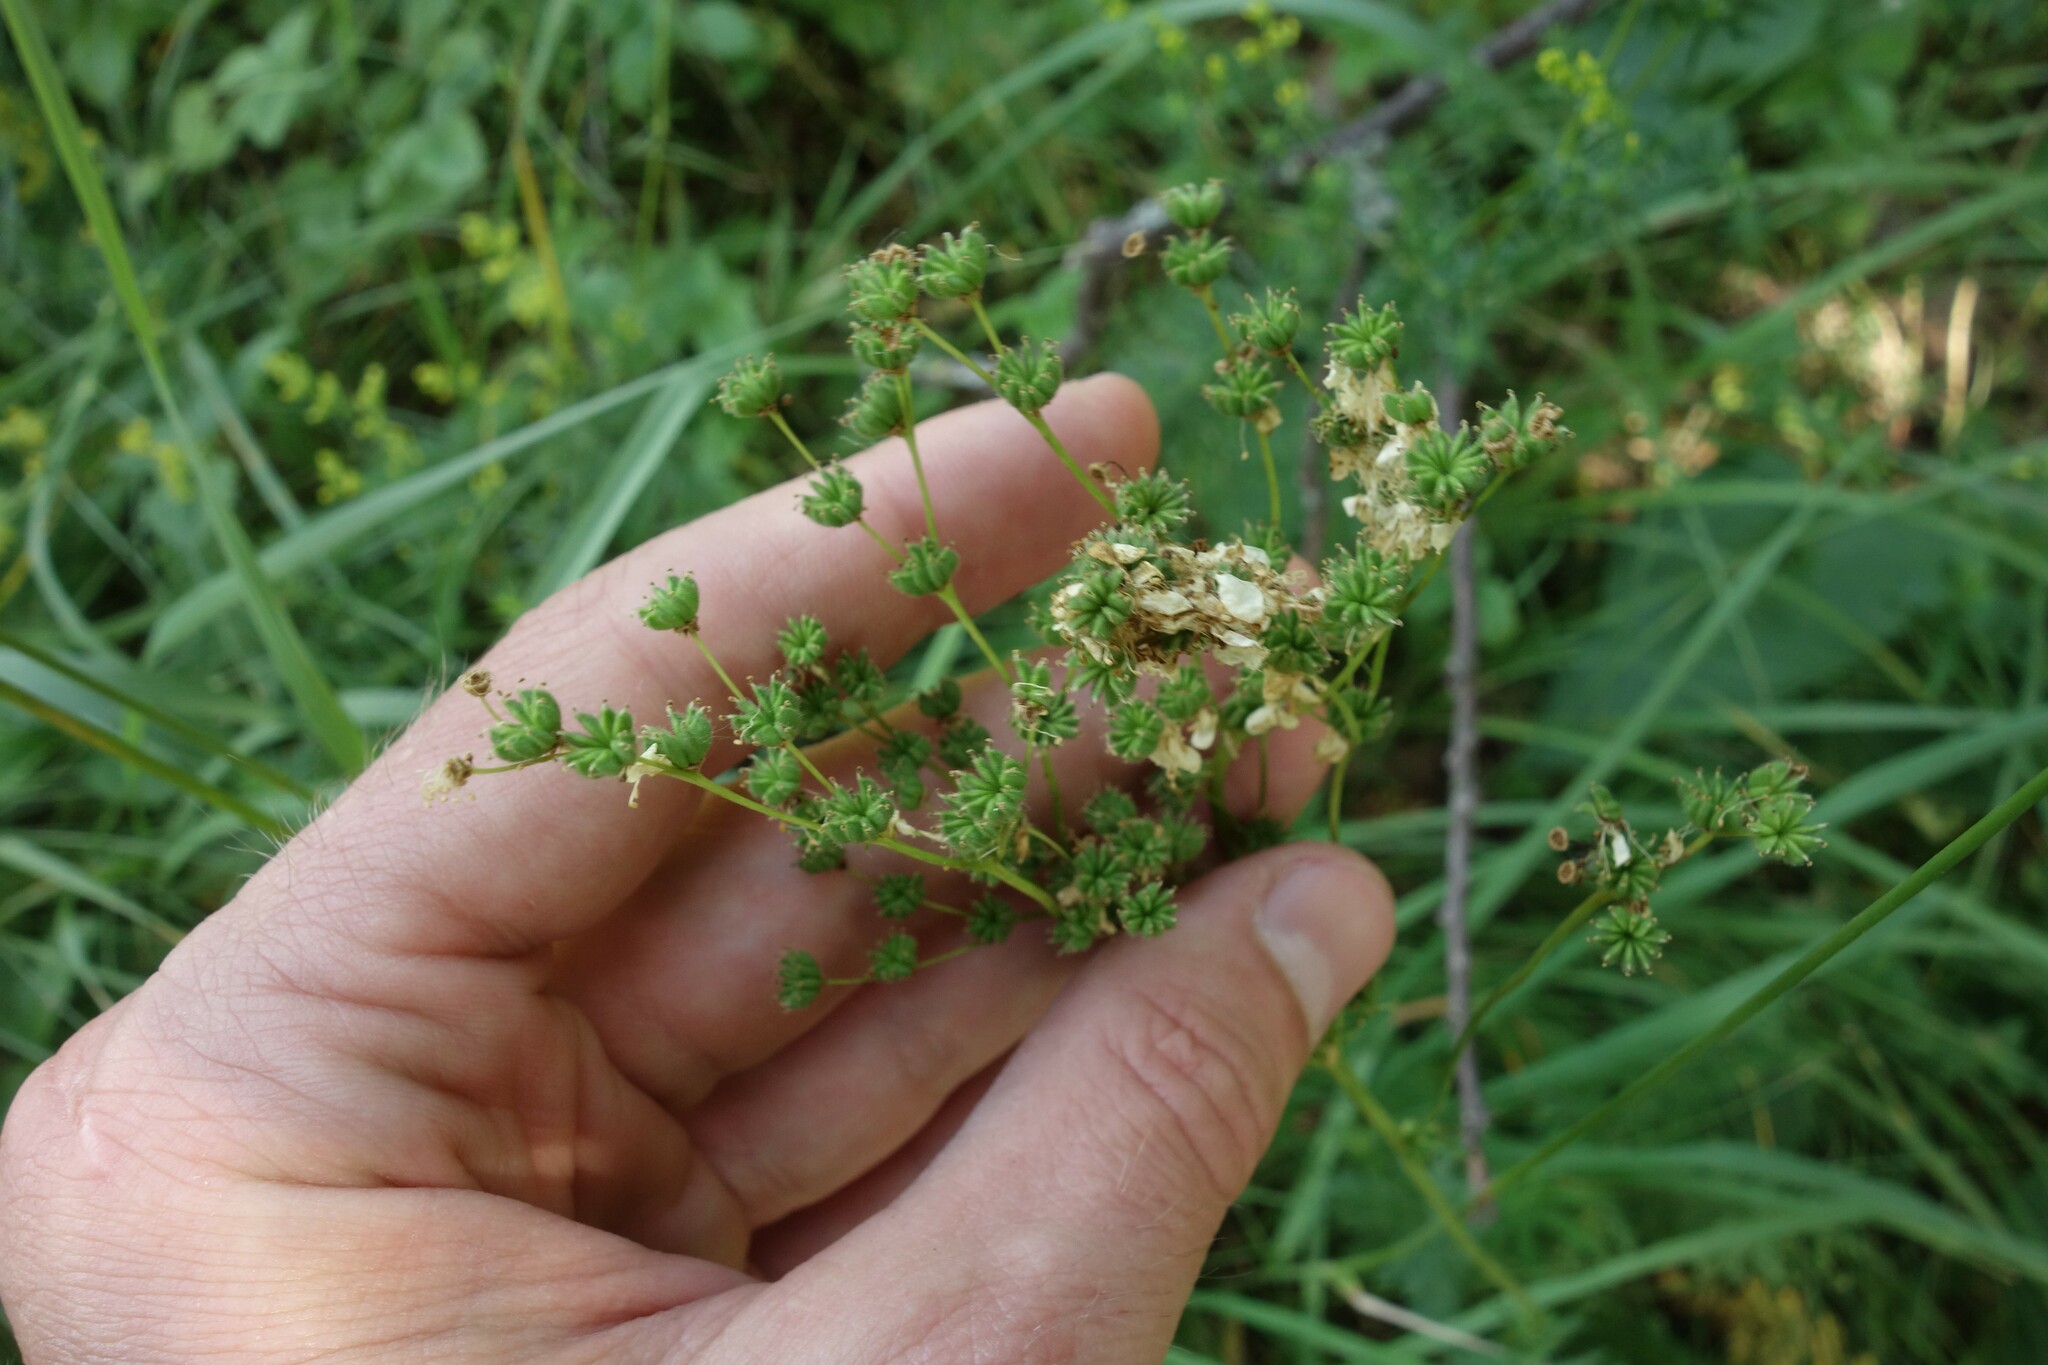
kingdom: Plantae
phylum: Tracheophyta
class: Magnoliopsida
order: Rosales
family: Rosaceae
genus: Filipendula
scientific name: Filipendula vulgaris
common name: Dropwort
